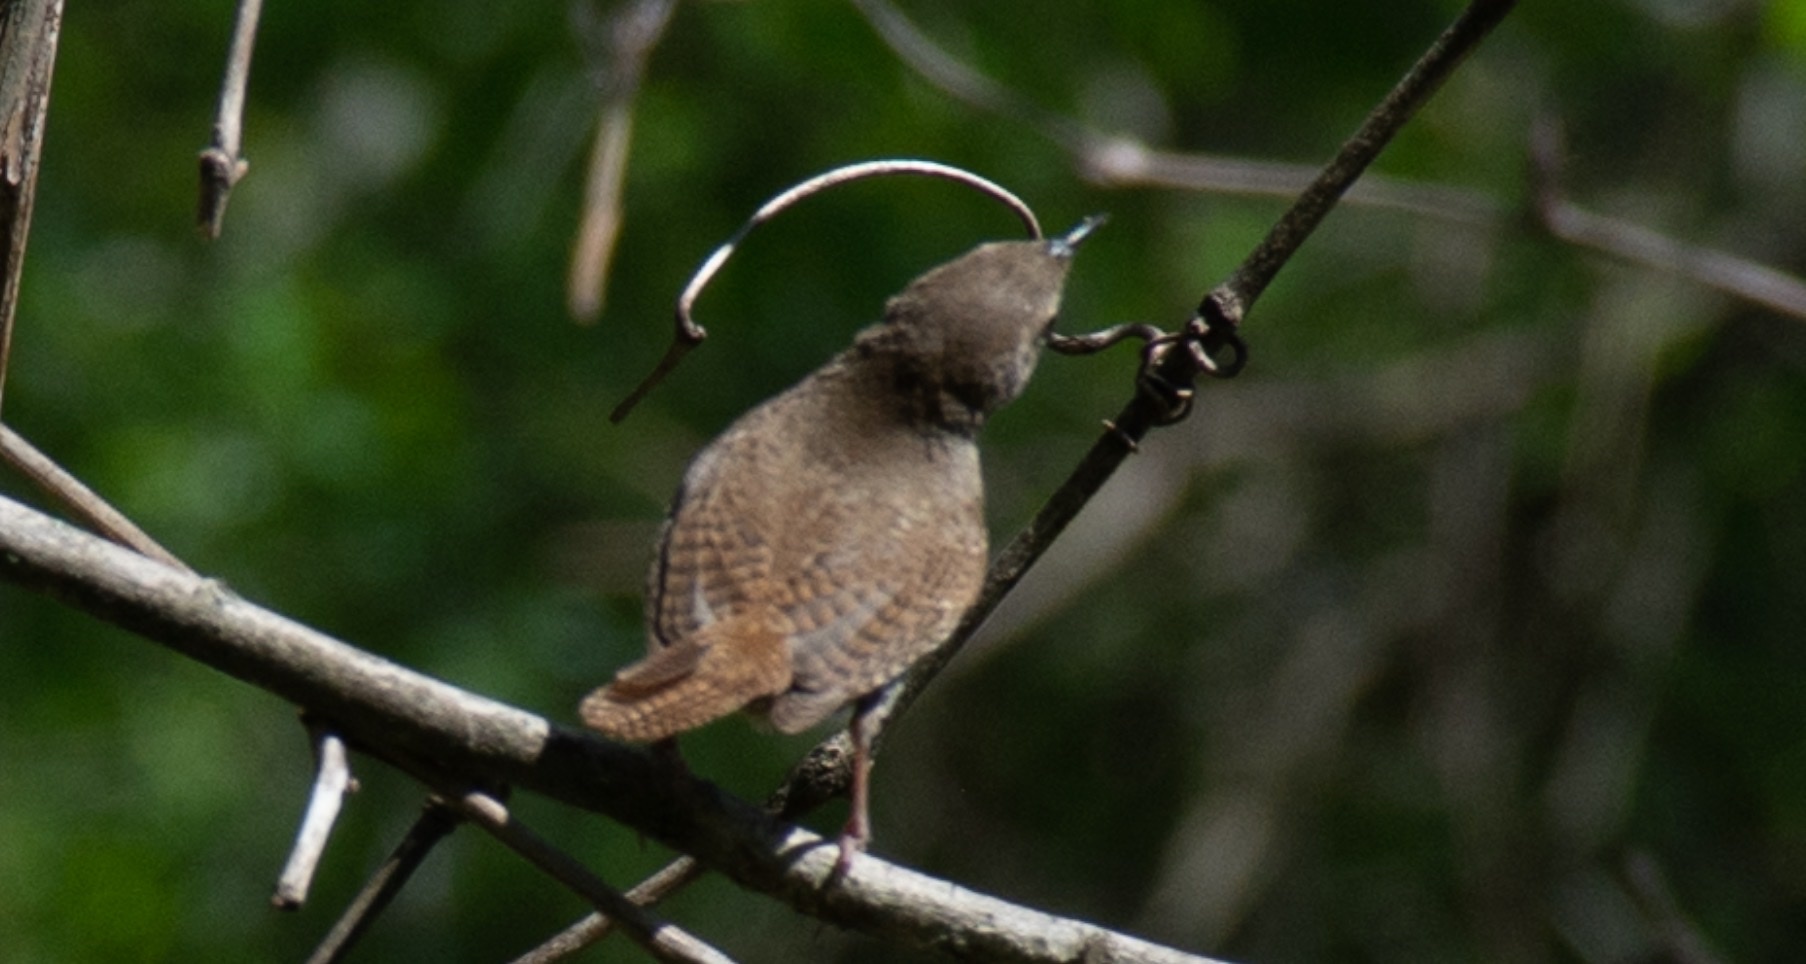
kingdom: Animalia
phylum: Chordata
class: Aves
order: Passeriformes
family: Troglodytidae
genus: Troglodytes
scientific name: Troglodytes aedon
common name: House wren
